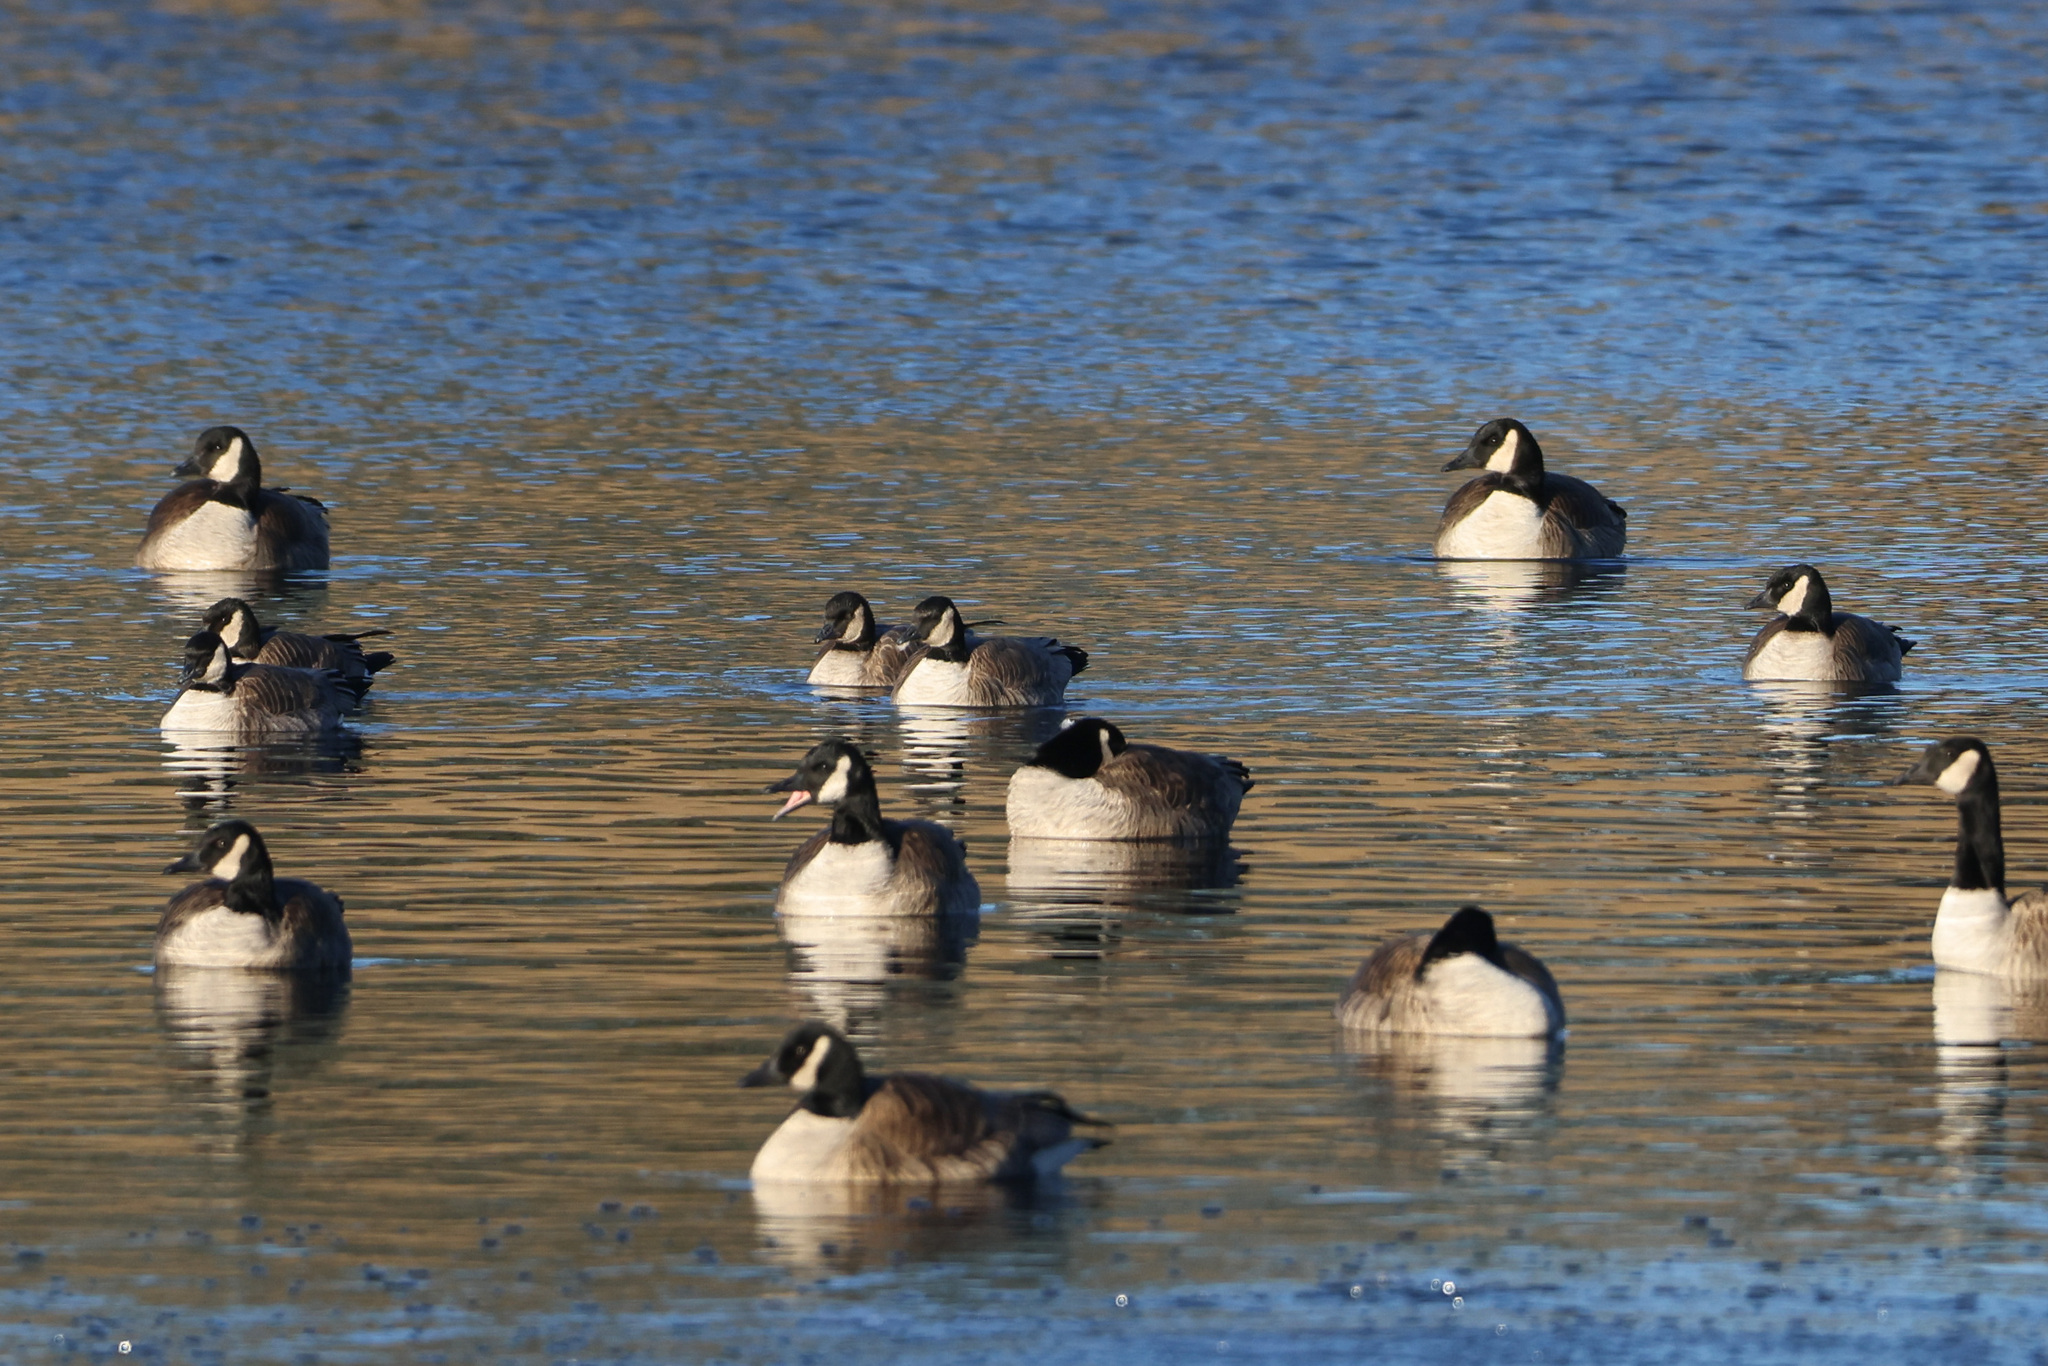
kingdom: Animalia
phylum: Chordata
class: Aves
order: Anseriformes
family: Anatidae
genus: Branta
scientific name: Branta hutchinsii
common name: Cackling goose
